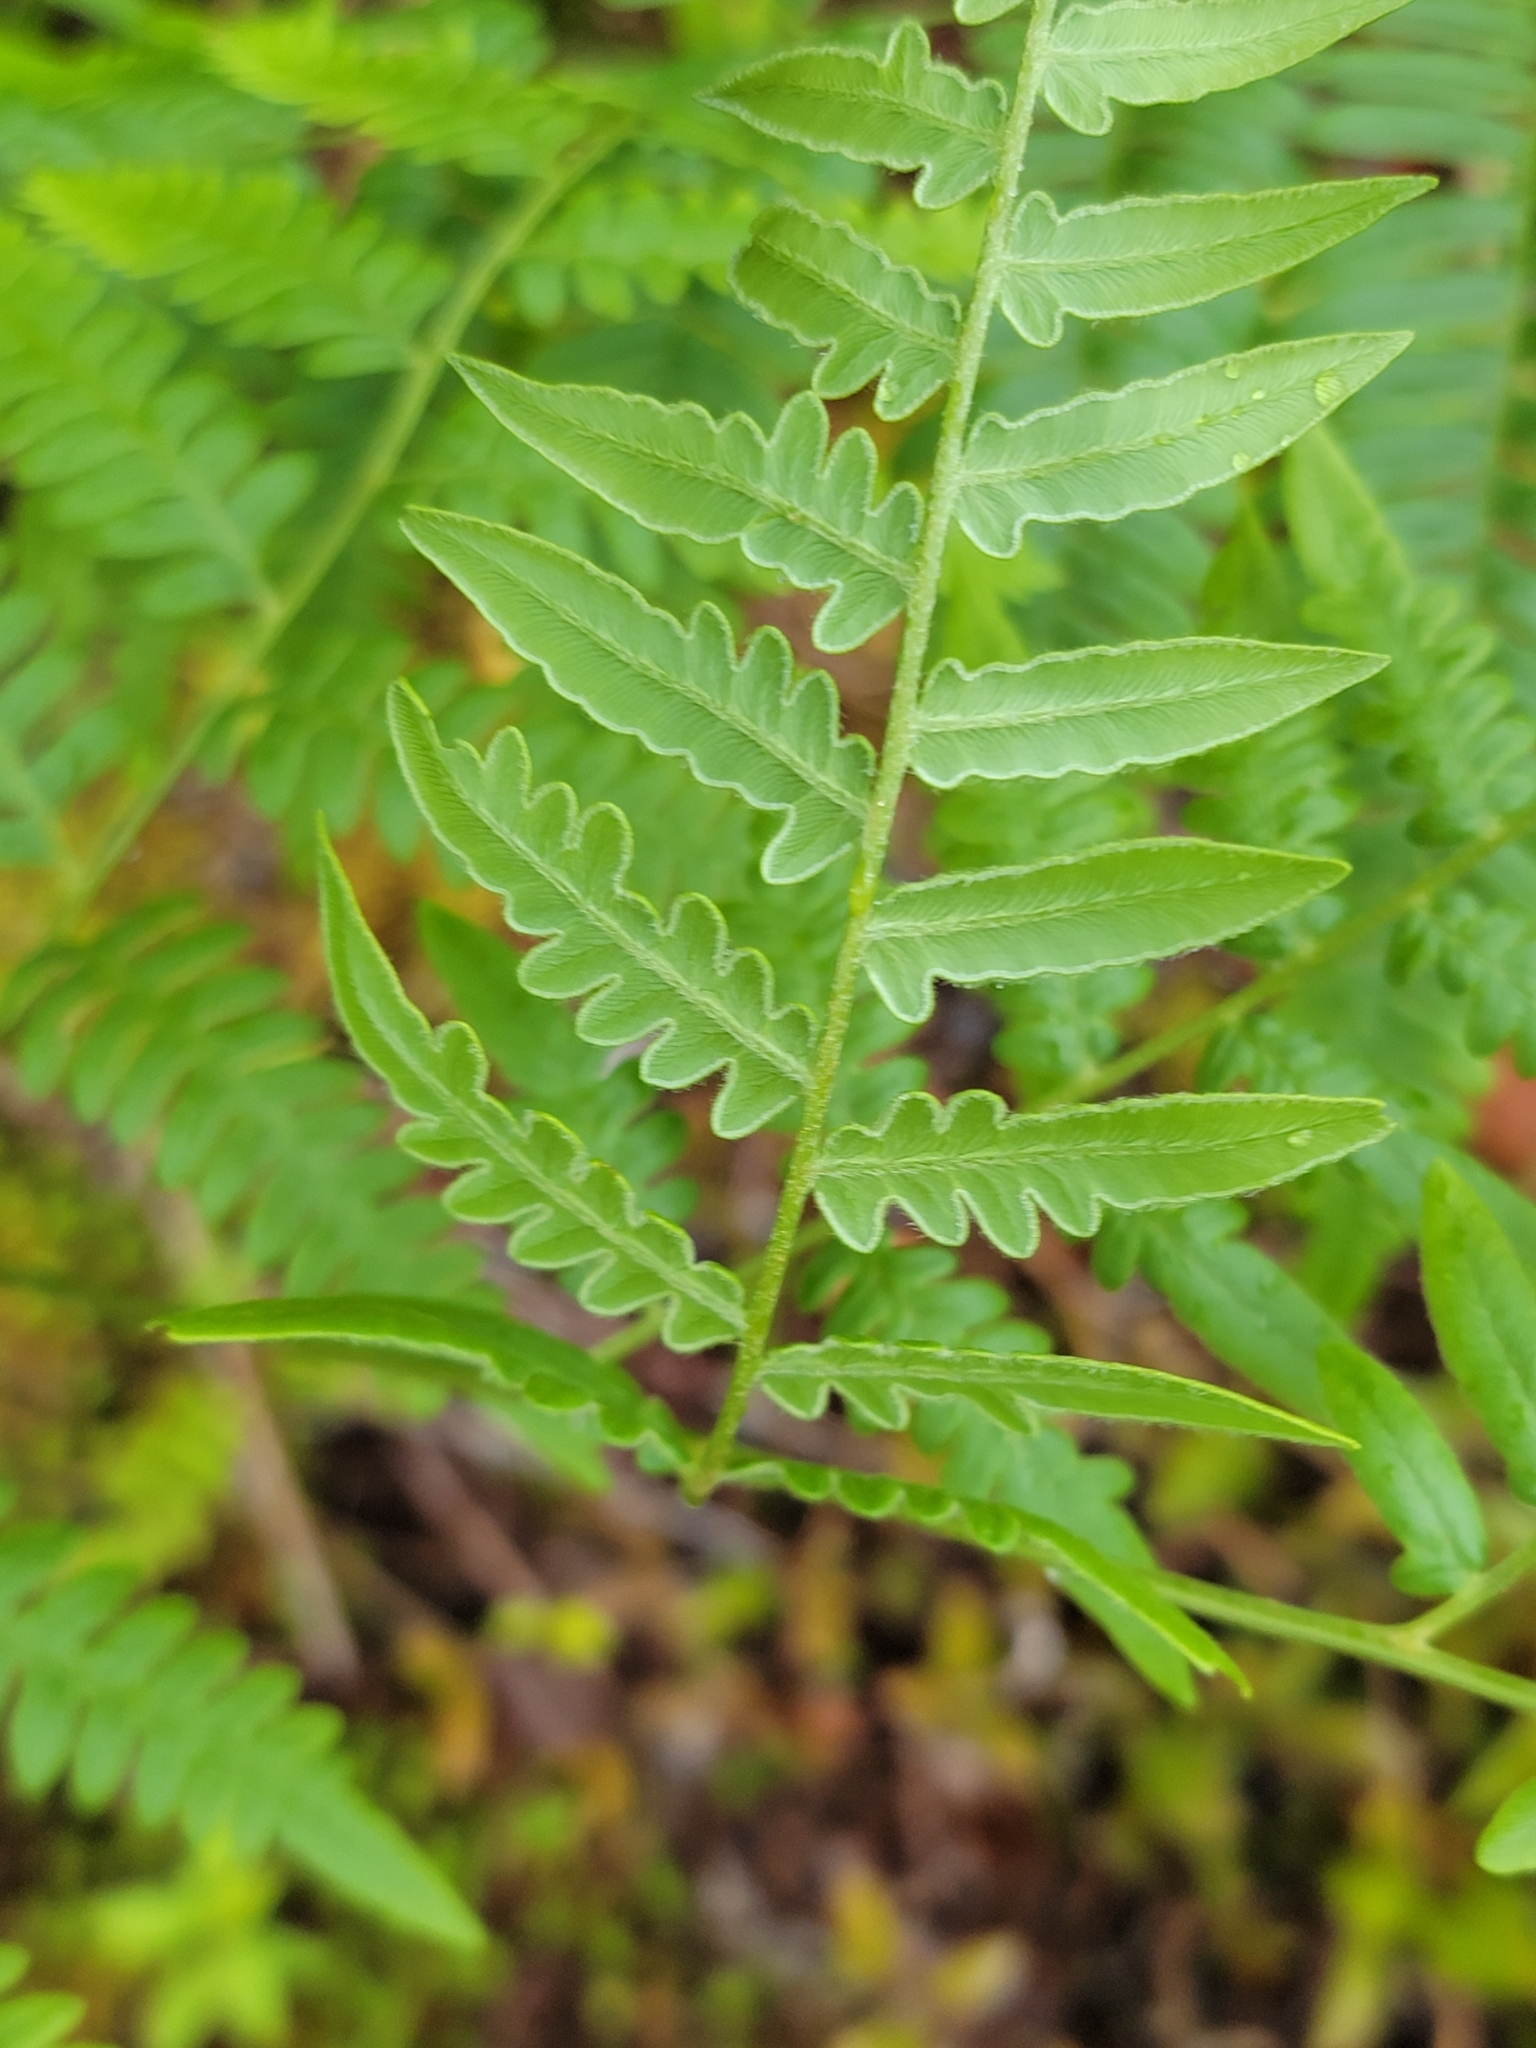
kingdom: Plantae
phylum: Tracheophyta
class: Polypodiopsida
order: Polypodiales
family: Dennstaedtiaceae
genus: Pteridium
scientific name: Pteridium aquilinum
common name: Bracken
